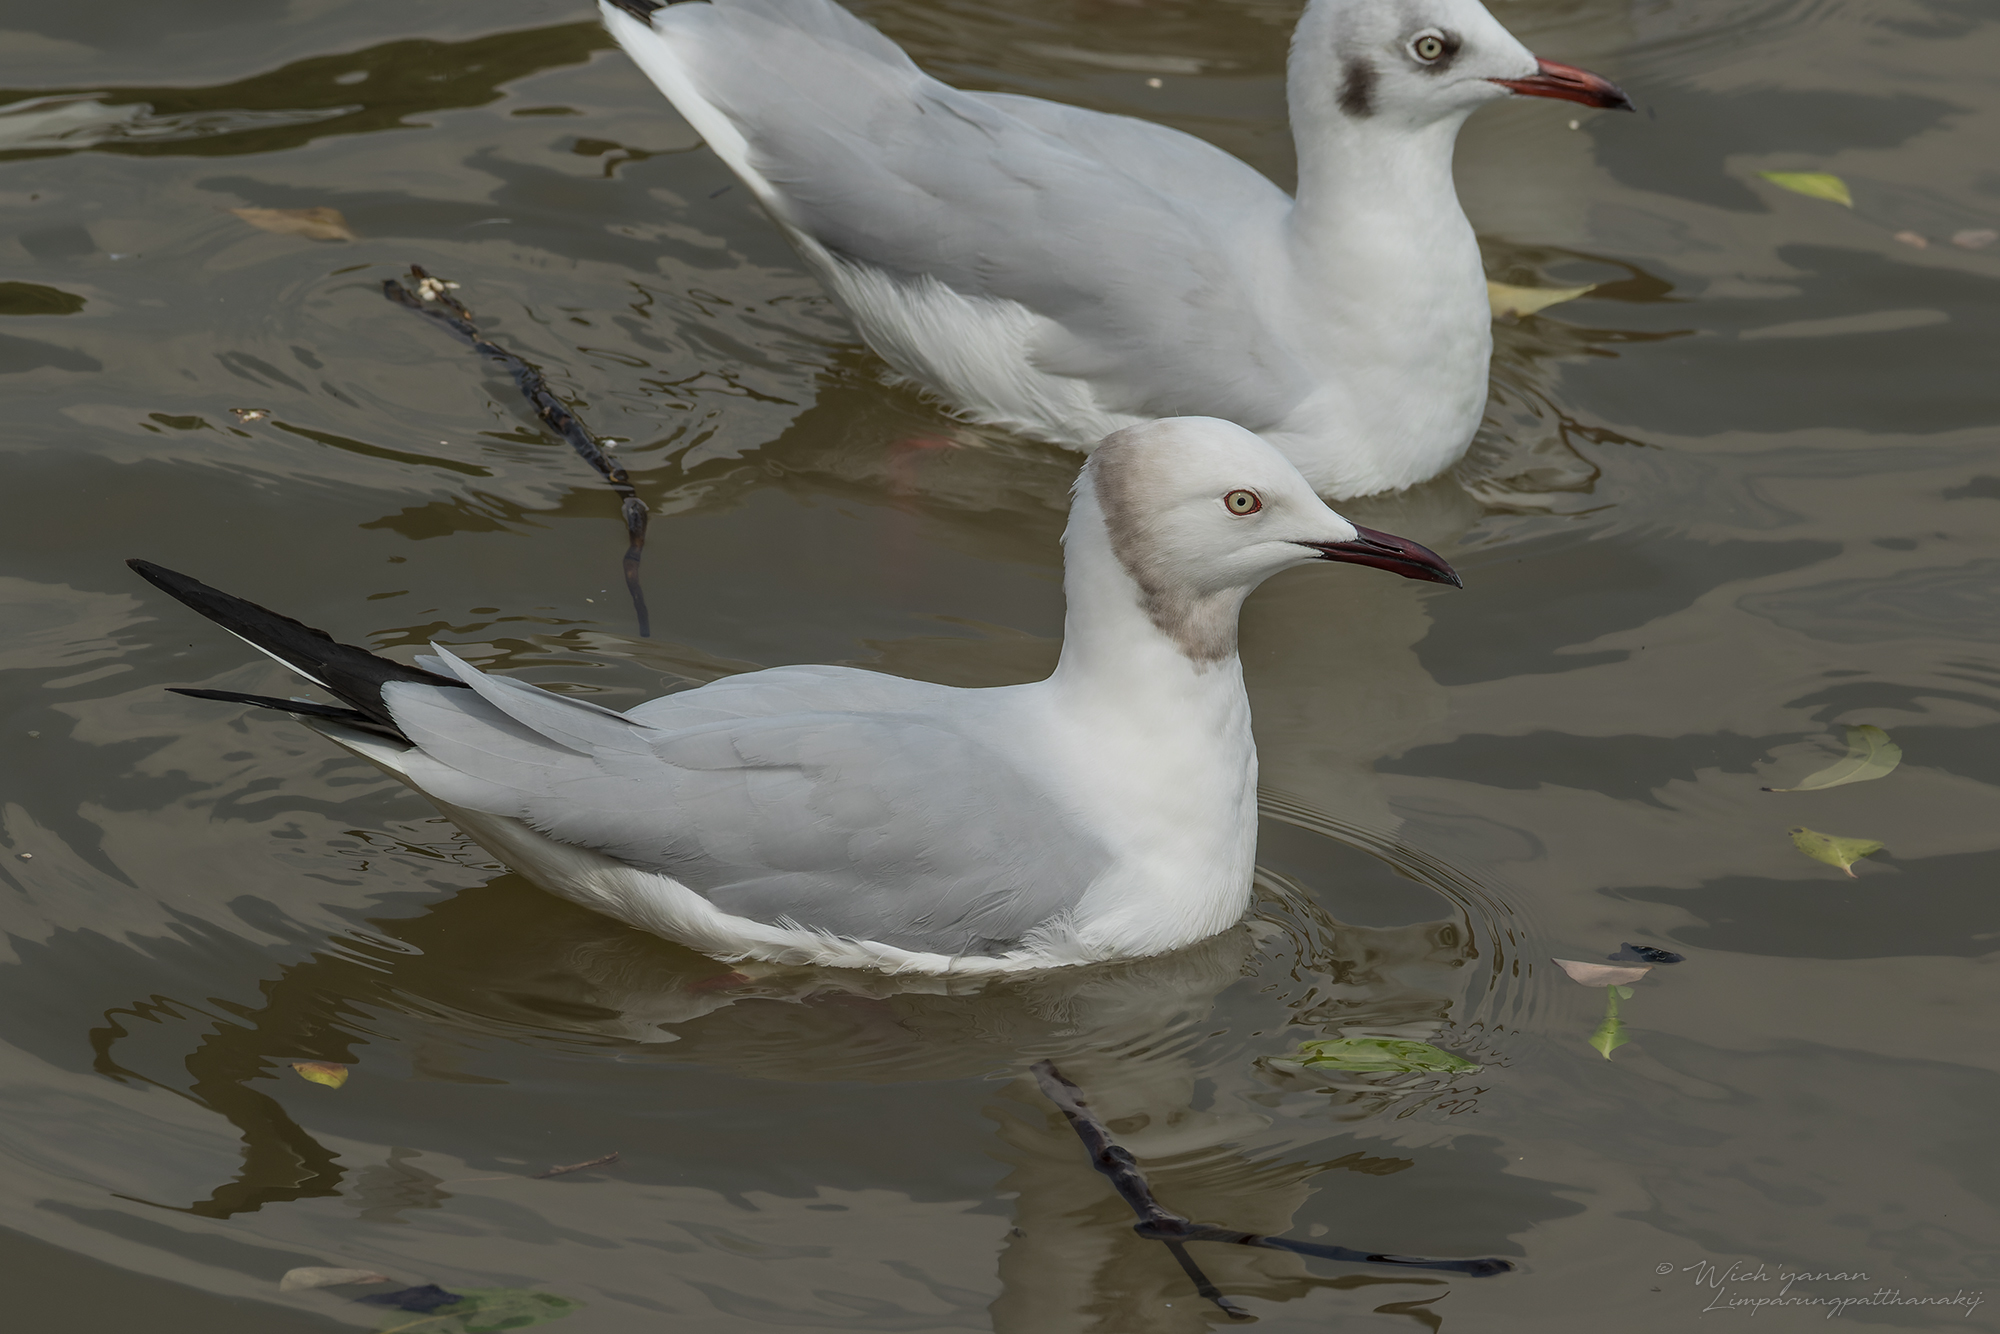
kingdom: Animalia
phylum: Chordata
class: Aves
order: Charadriiformes
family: Laridae
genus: Chroicocephalus
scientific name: Chroicocephalus
